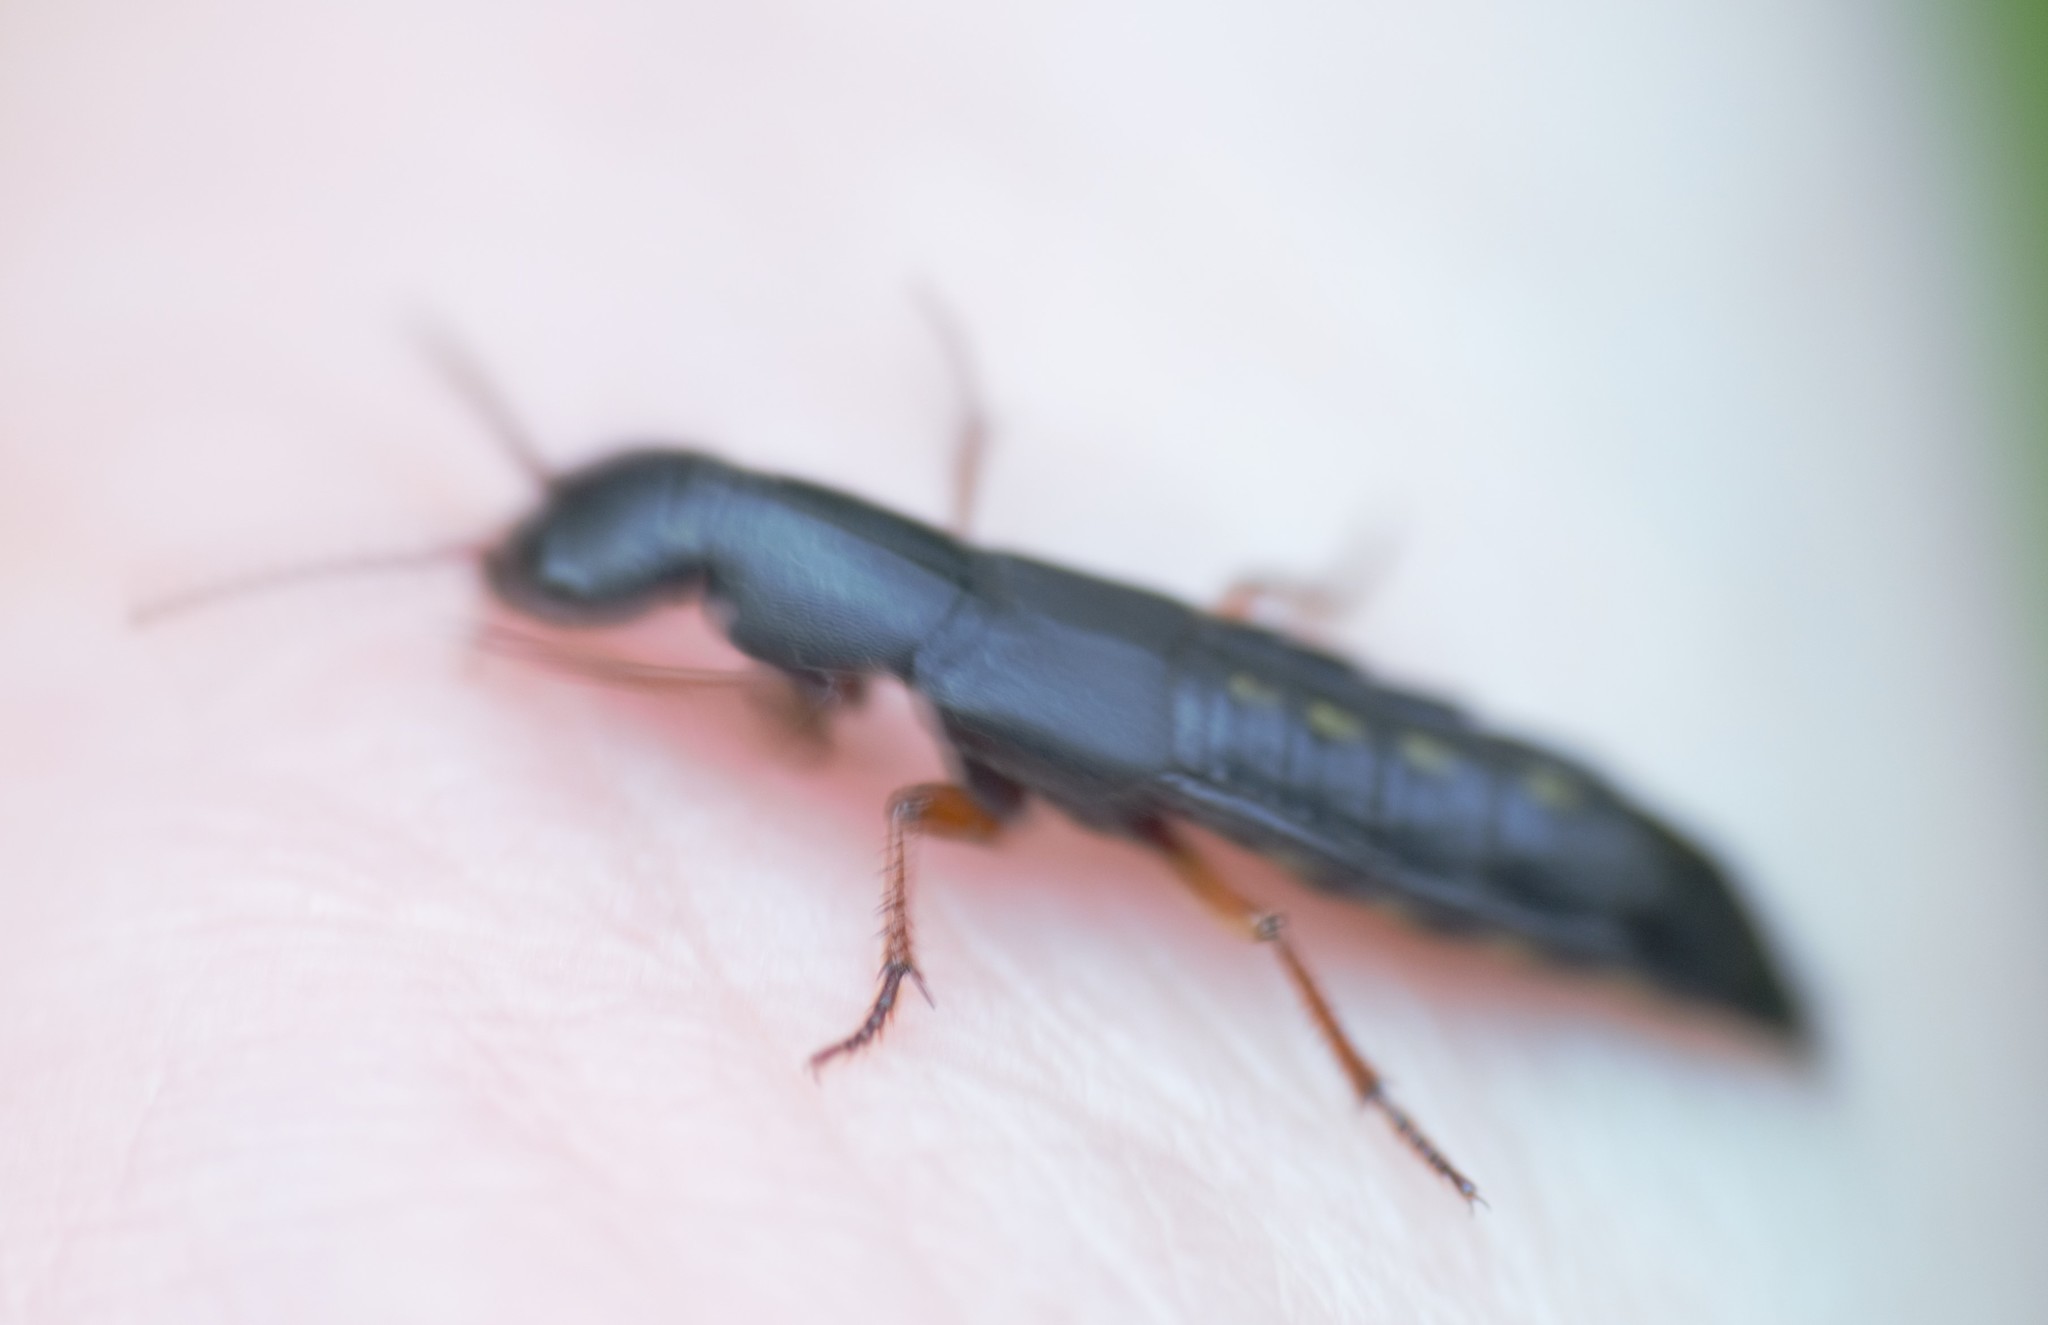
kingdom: Animalia
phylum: Arthropoda
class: Insecta
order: Coleoptera
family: Staphylinidae
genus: Dinothenarus
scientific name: Dinothenarus badipes
